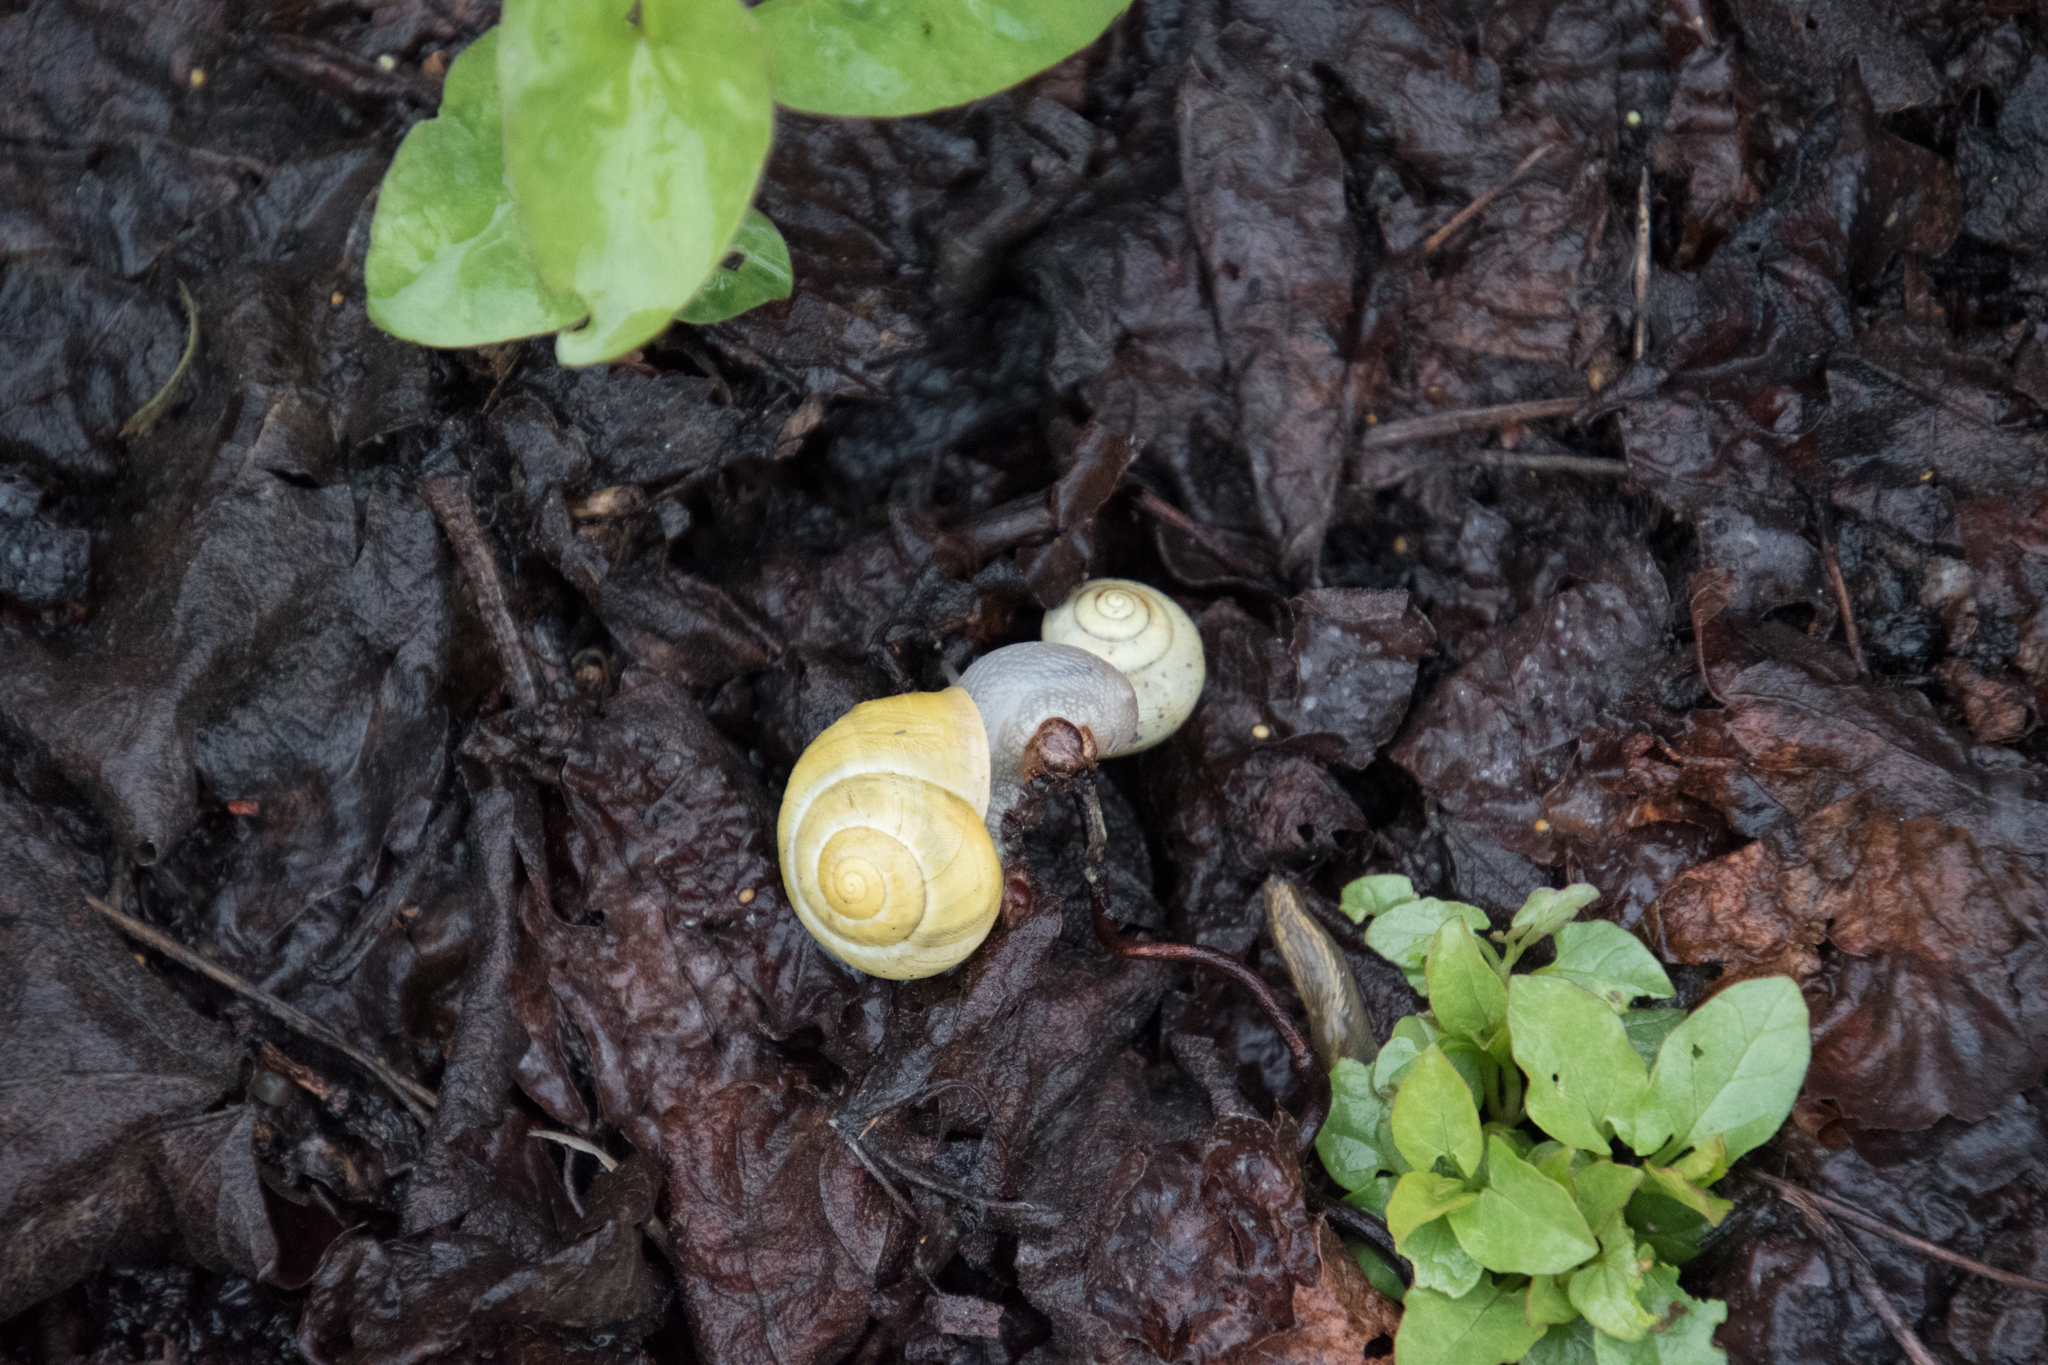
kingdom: Animalia
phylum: Mollusca
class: Gastropoda
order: Stylommatophora
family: Helicidae
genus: Cepaea
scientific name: Cepaea hortensis
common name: White-lip gardensnail
